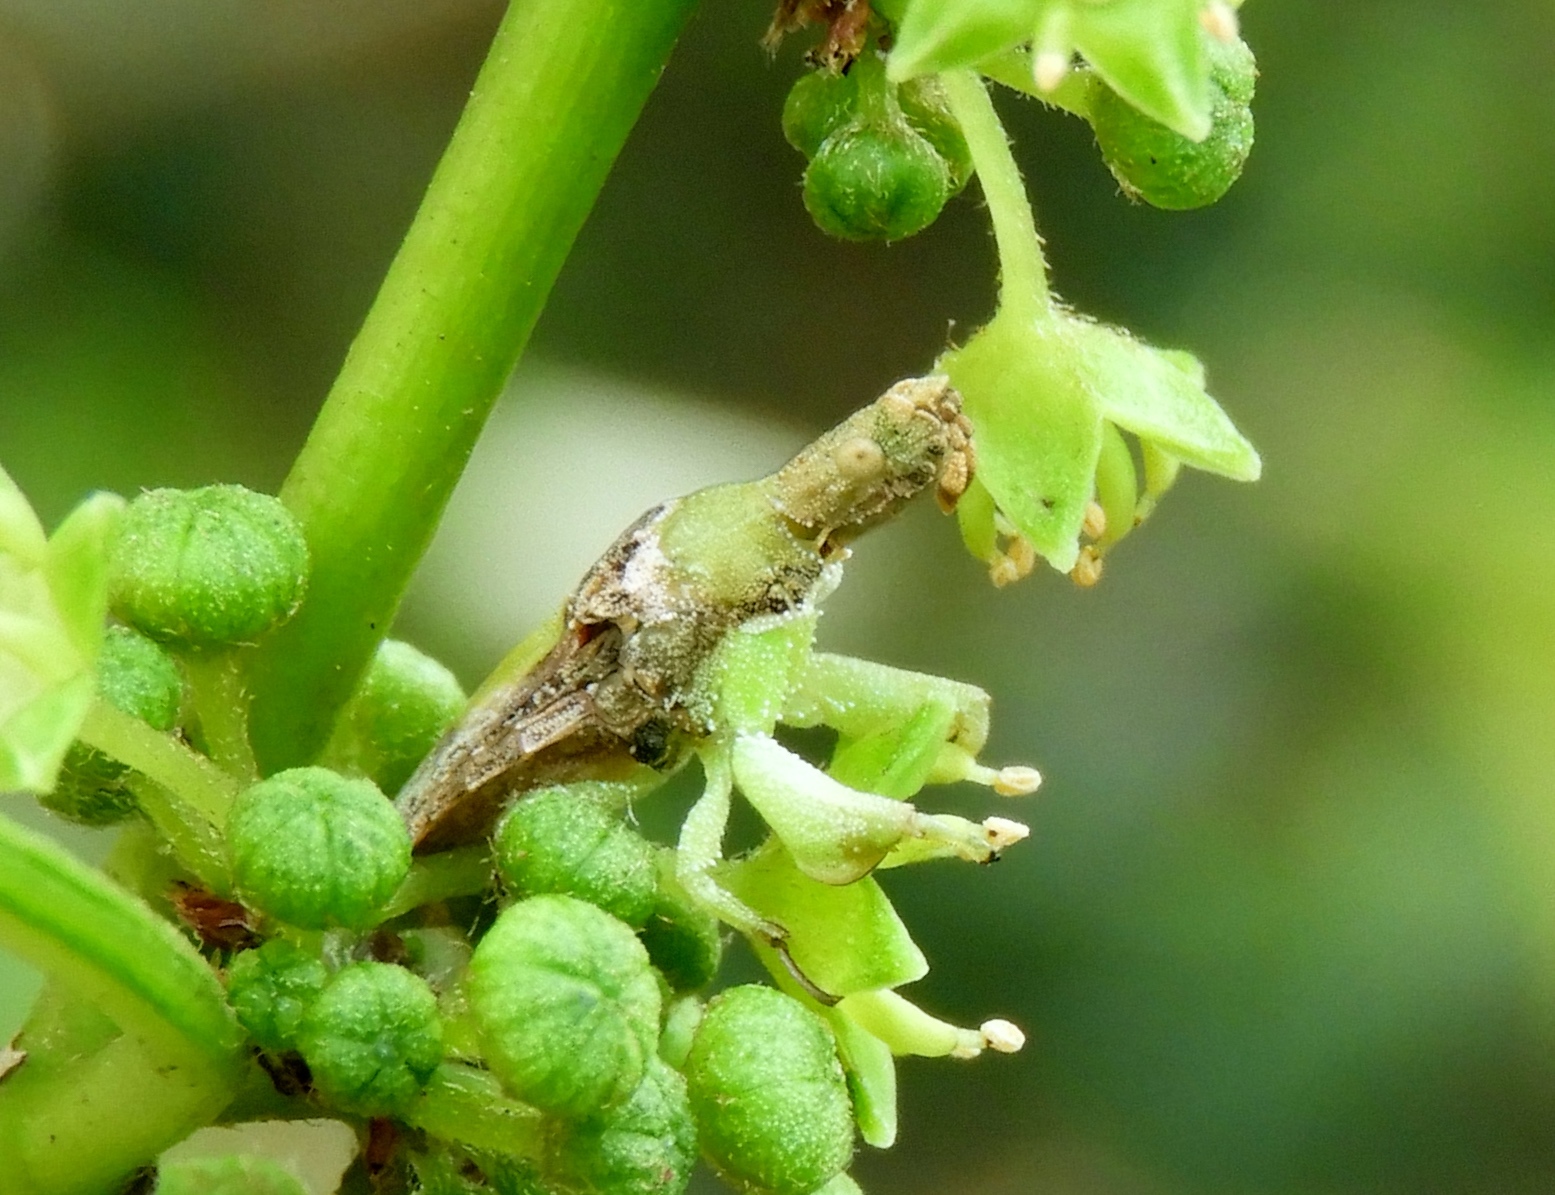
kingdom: Animalia
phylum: Arthropoda
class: Insecta
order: Hemiptera
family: Reduviidae
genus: Macrocephalus
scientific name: Macrocephalus
